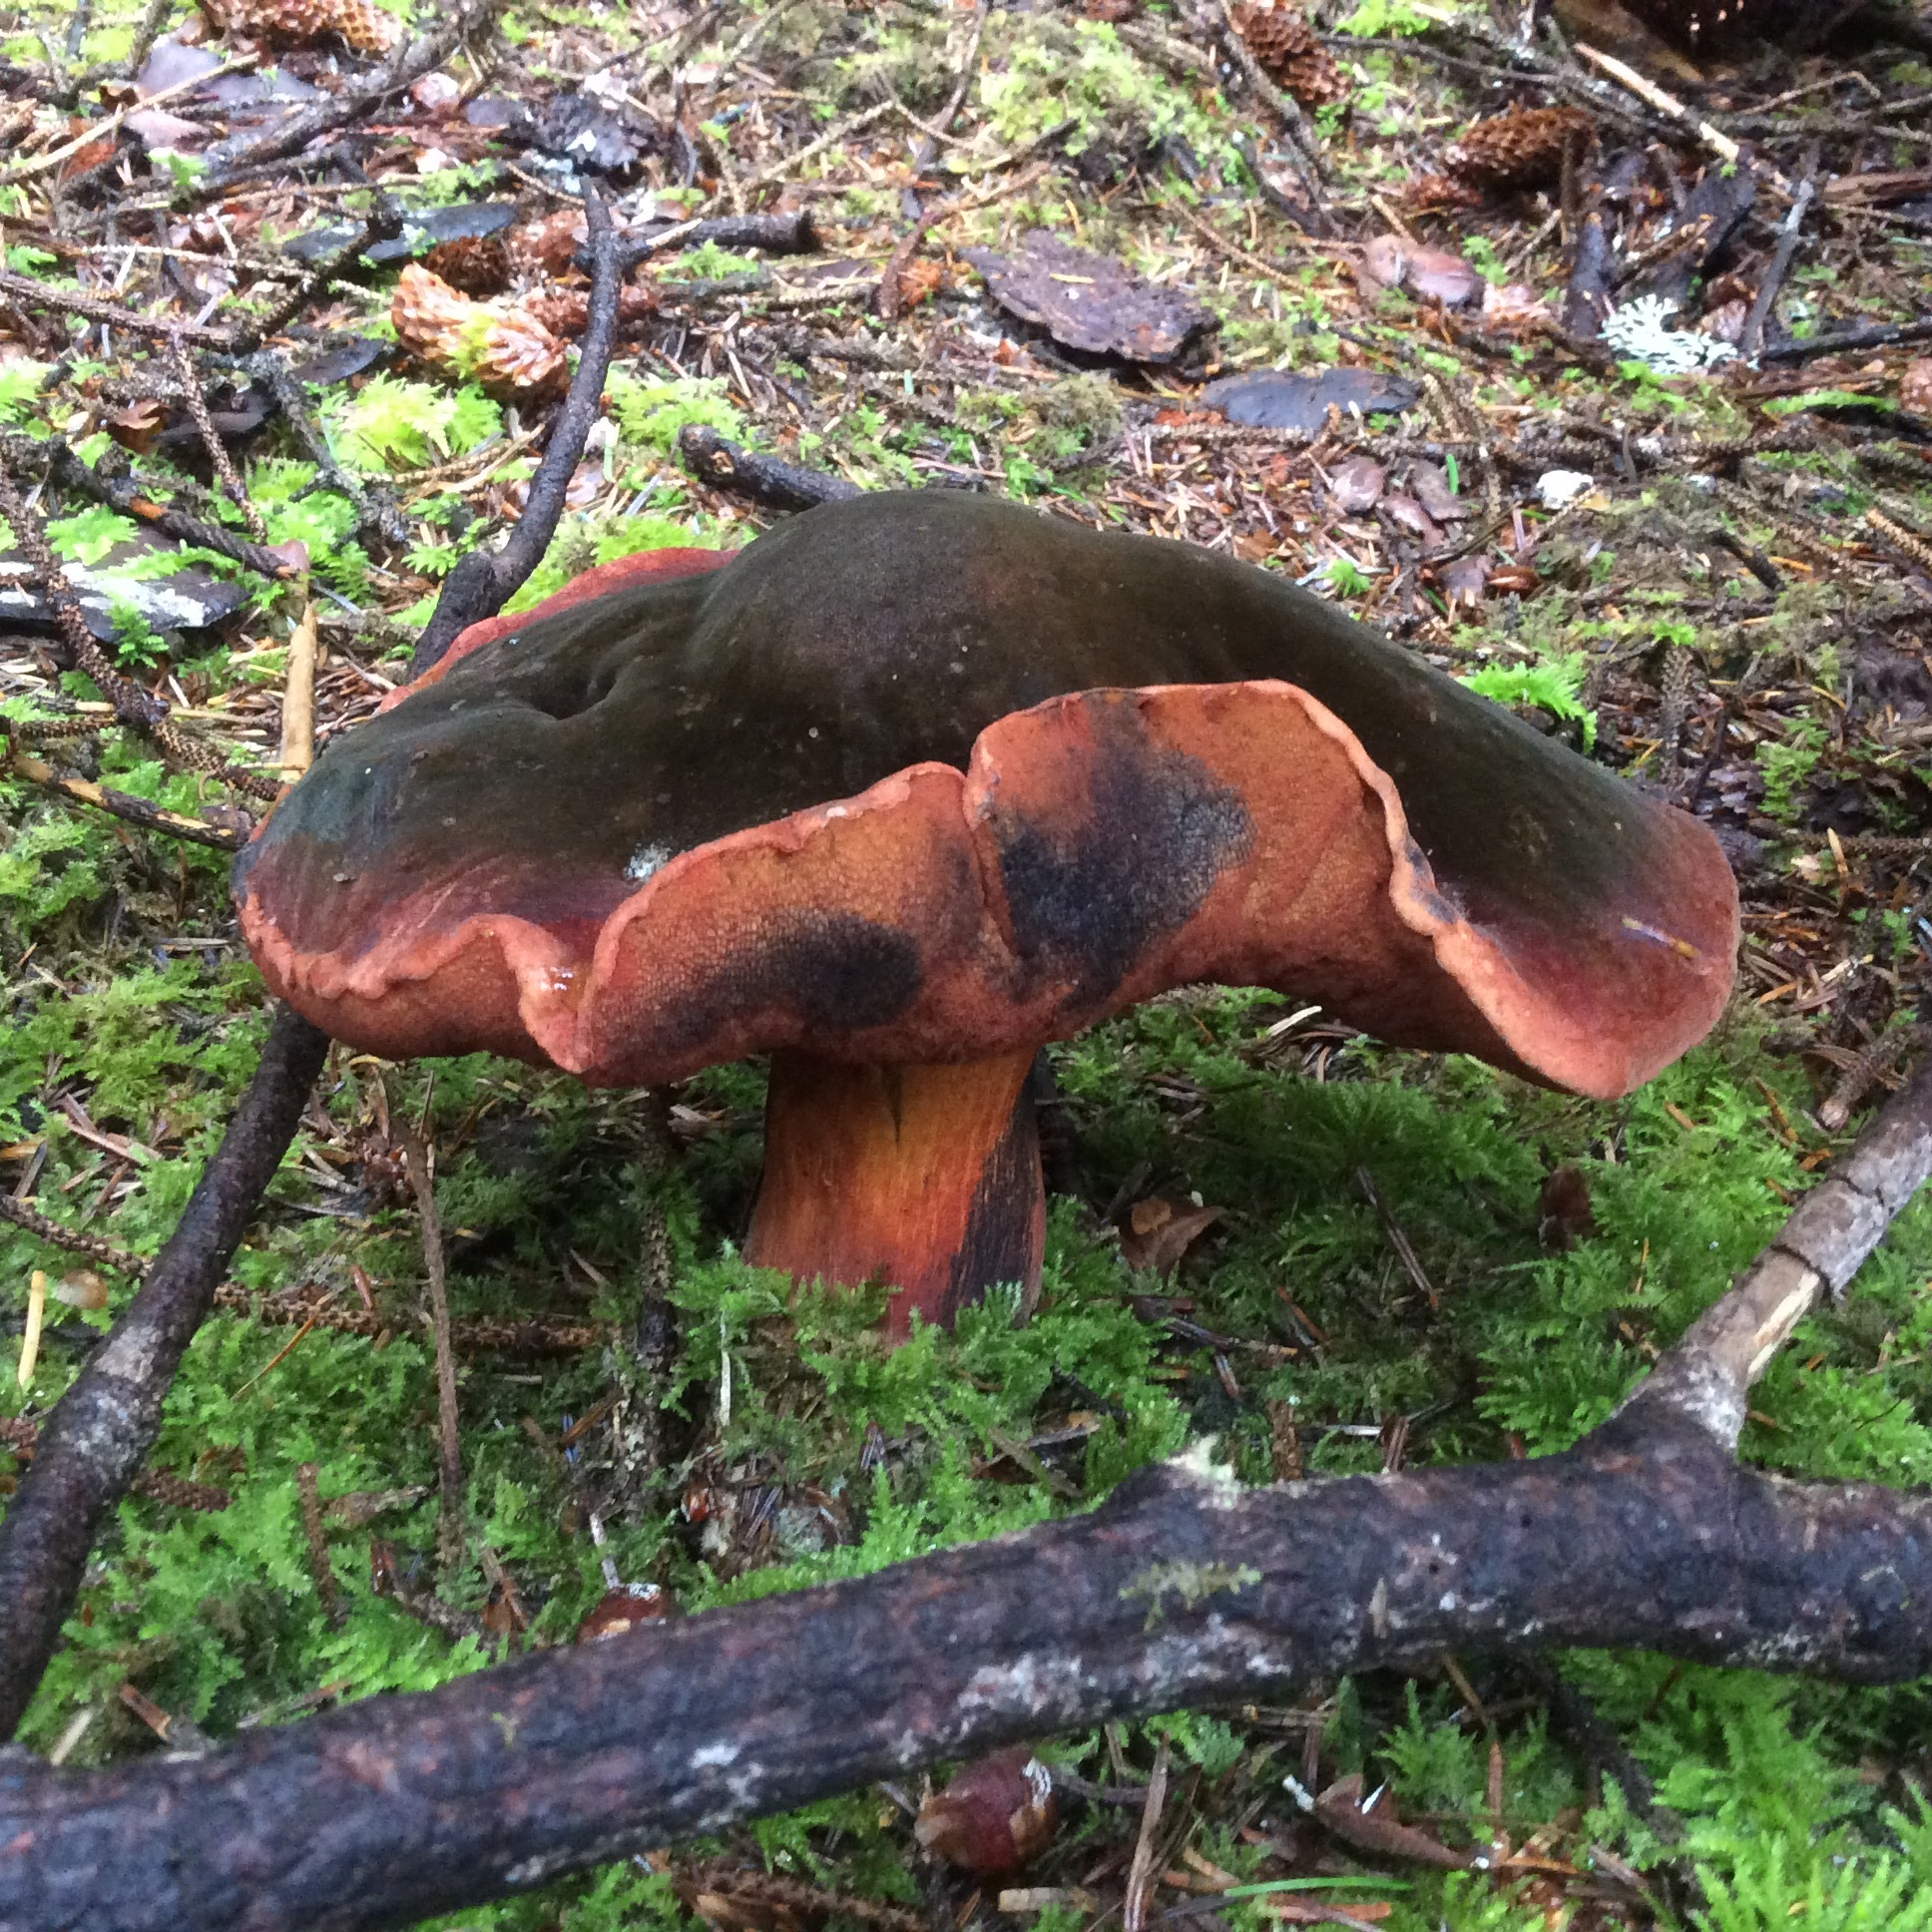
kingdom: Fungi
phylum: Basidiomycota
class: Agaricomycetes
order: Boletales
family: Boletaceae
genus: Neoboletus
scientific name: Neoboletus luridiformis
